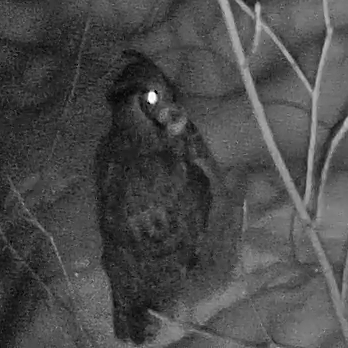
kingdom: Animalia
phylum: Chordata
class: Aves
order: Strigiformes
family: Strigidae
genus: Bubo
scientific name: Bubo virginianus
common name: Great horned owl
